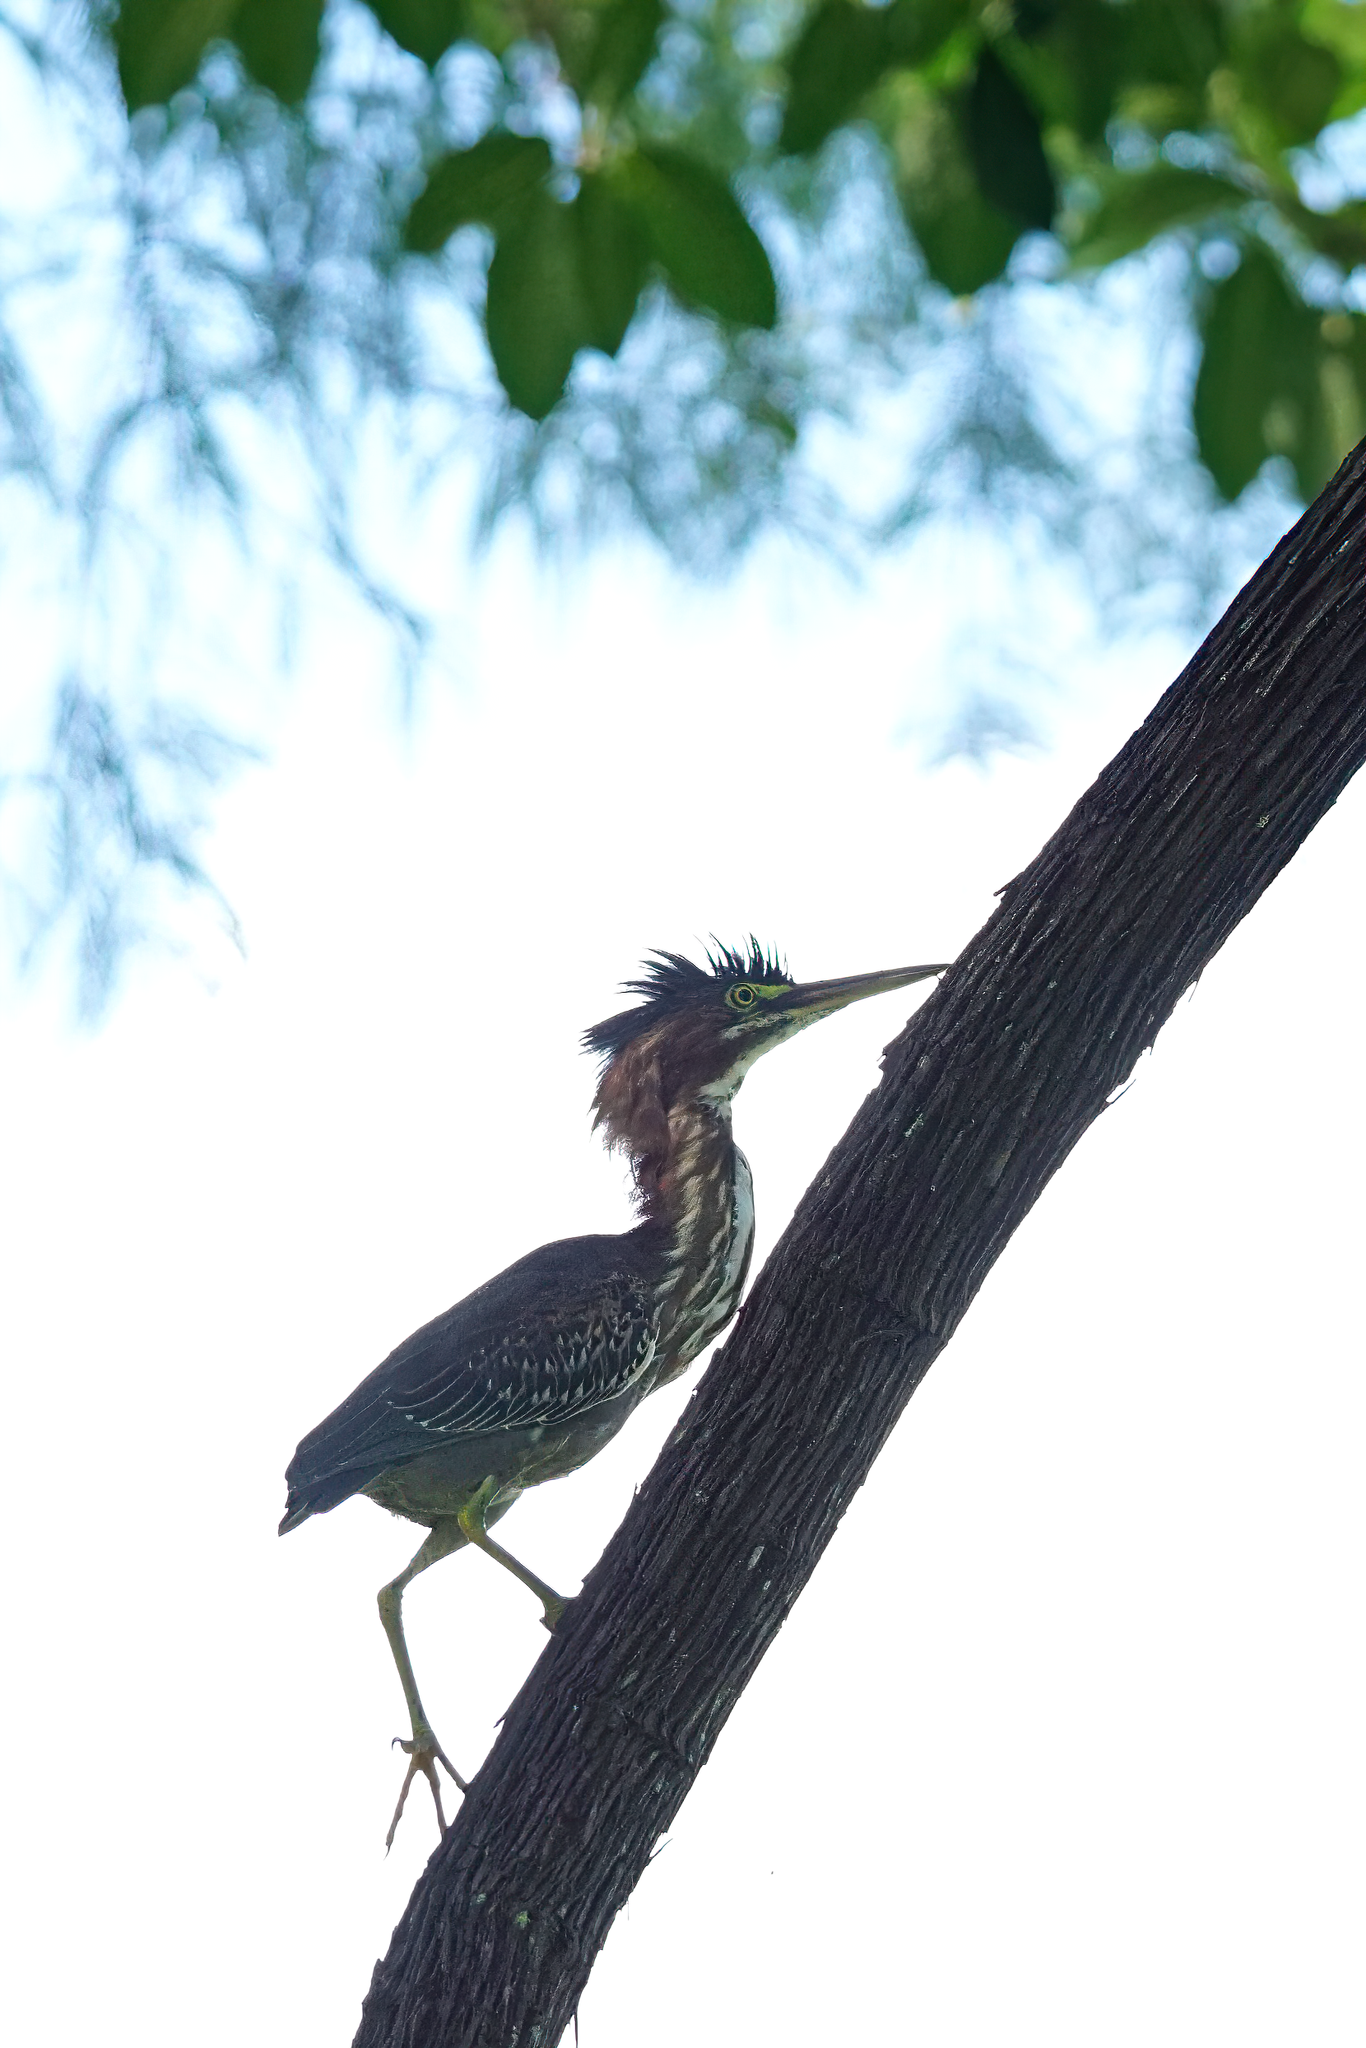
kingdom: Animalia
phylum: Chordata
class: Aves
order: Pelecaniformes
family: Ardeidae
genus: Butorides
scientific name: Butorides virescens
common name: Green heron
